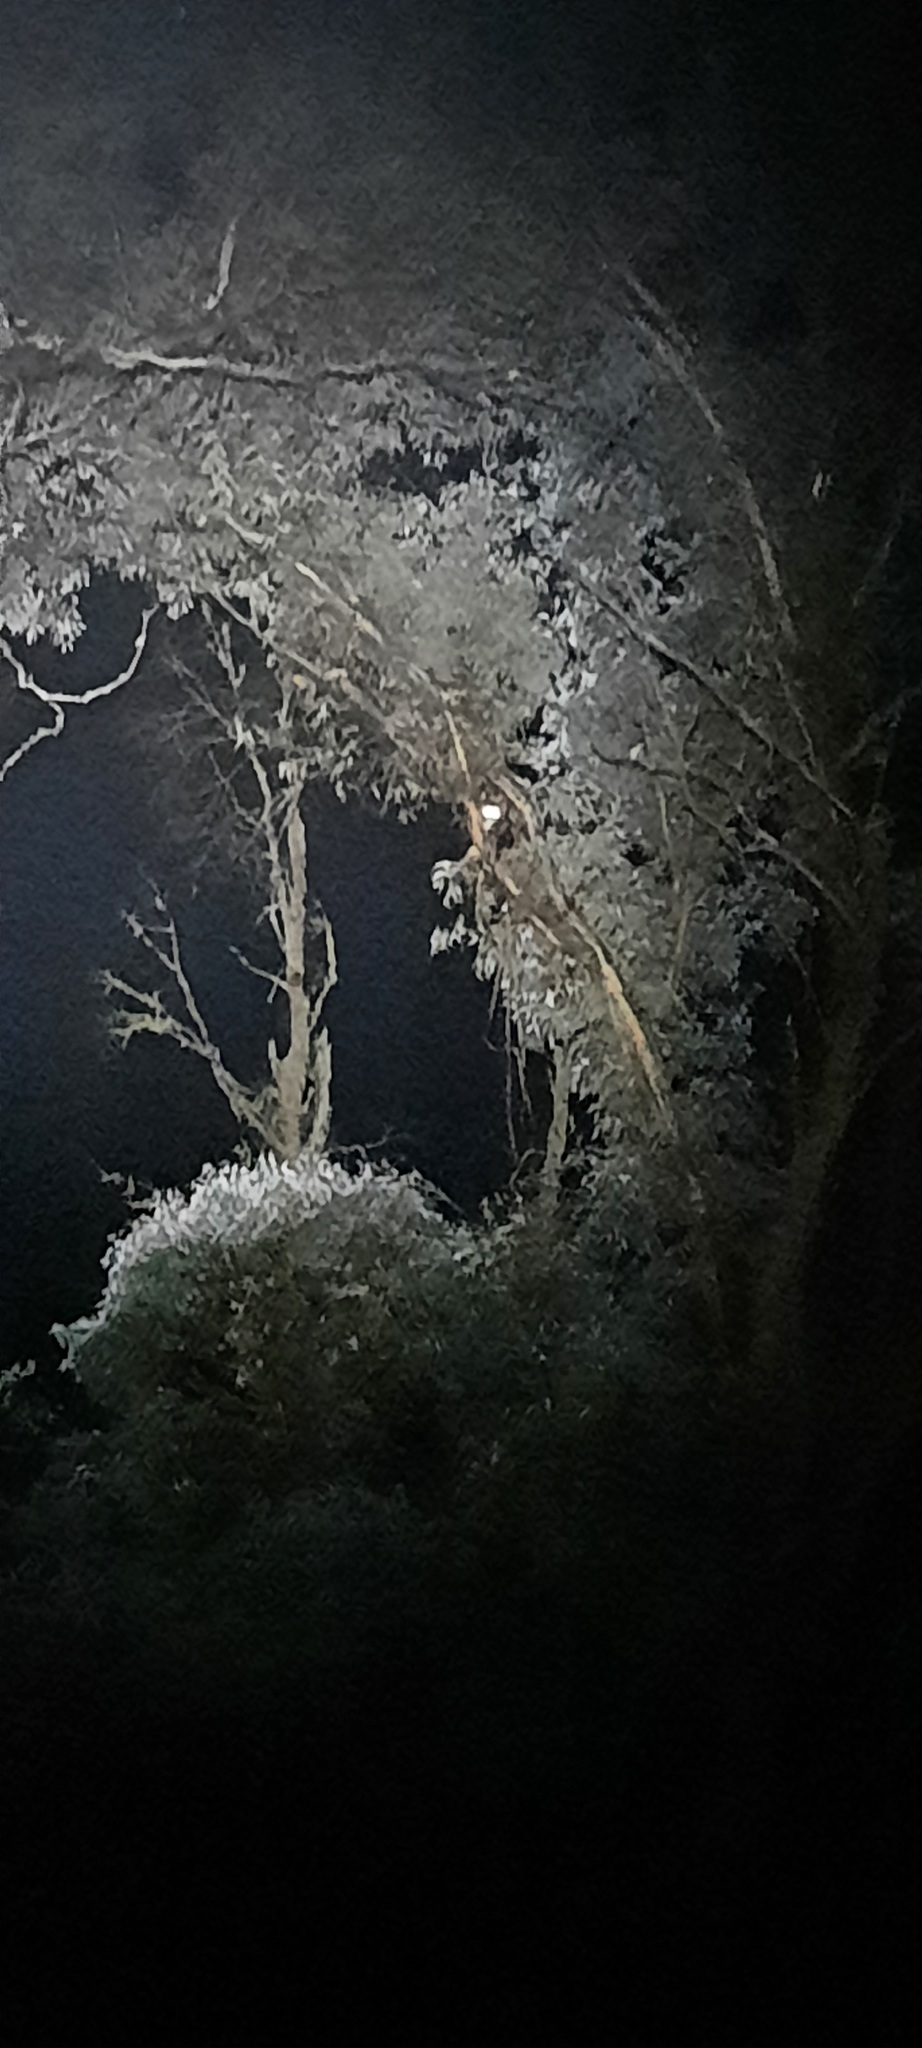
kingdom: Animalia
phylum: Chordata
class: Mammalia
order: Diprotodontia
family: Pseudocheiridae
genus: Petauroides
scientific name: Petauroides volans
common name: Greater glider
